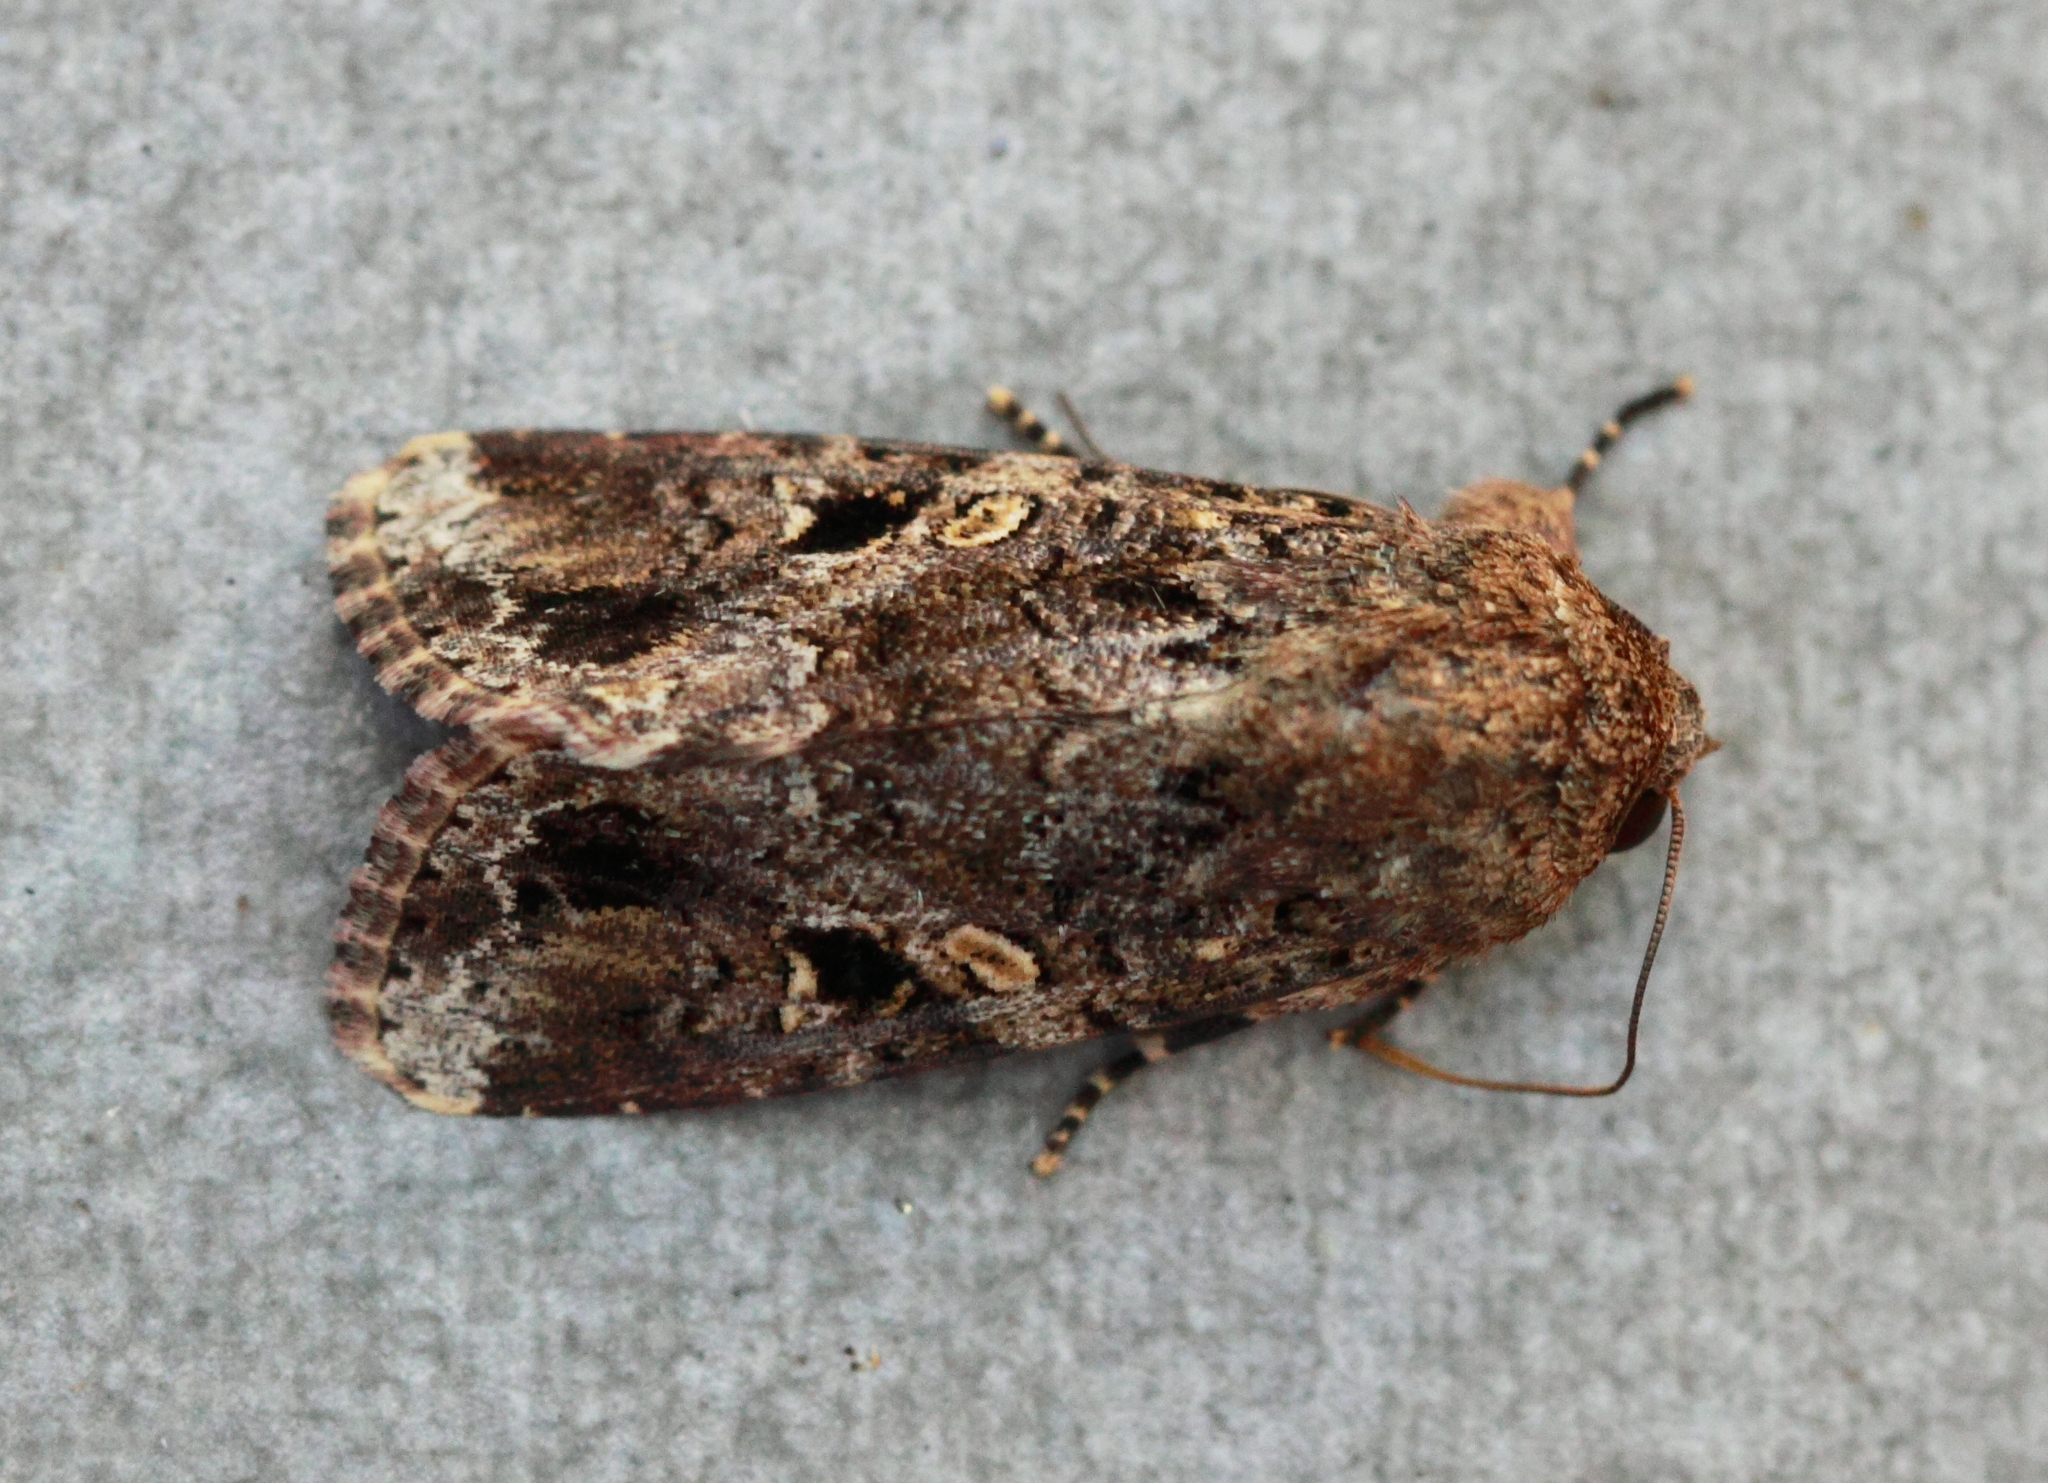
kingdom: Animalia
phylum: Arthropoda
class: Insecta
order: Lepidoptera
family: Noctuidae
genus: Spodoptera
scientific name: Spodoptera mauritia
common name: Lawn armyworm
